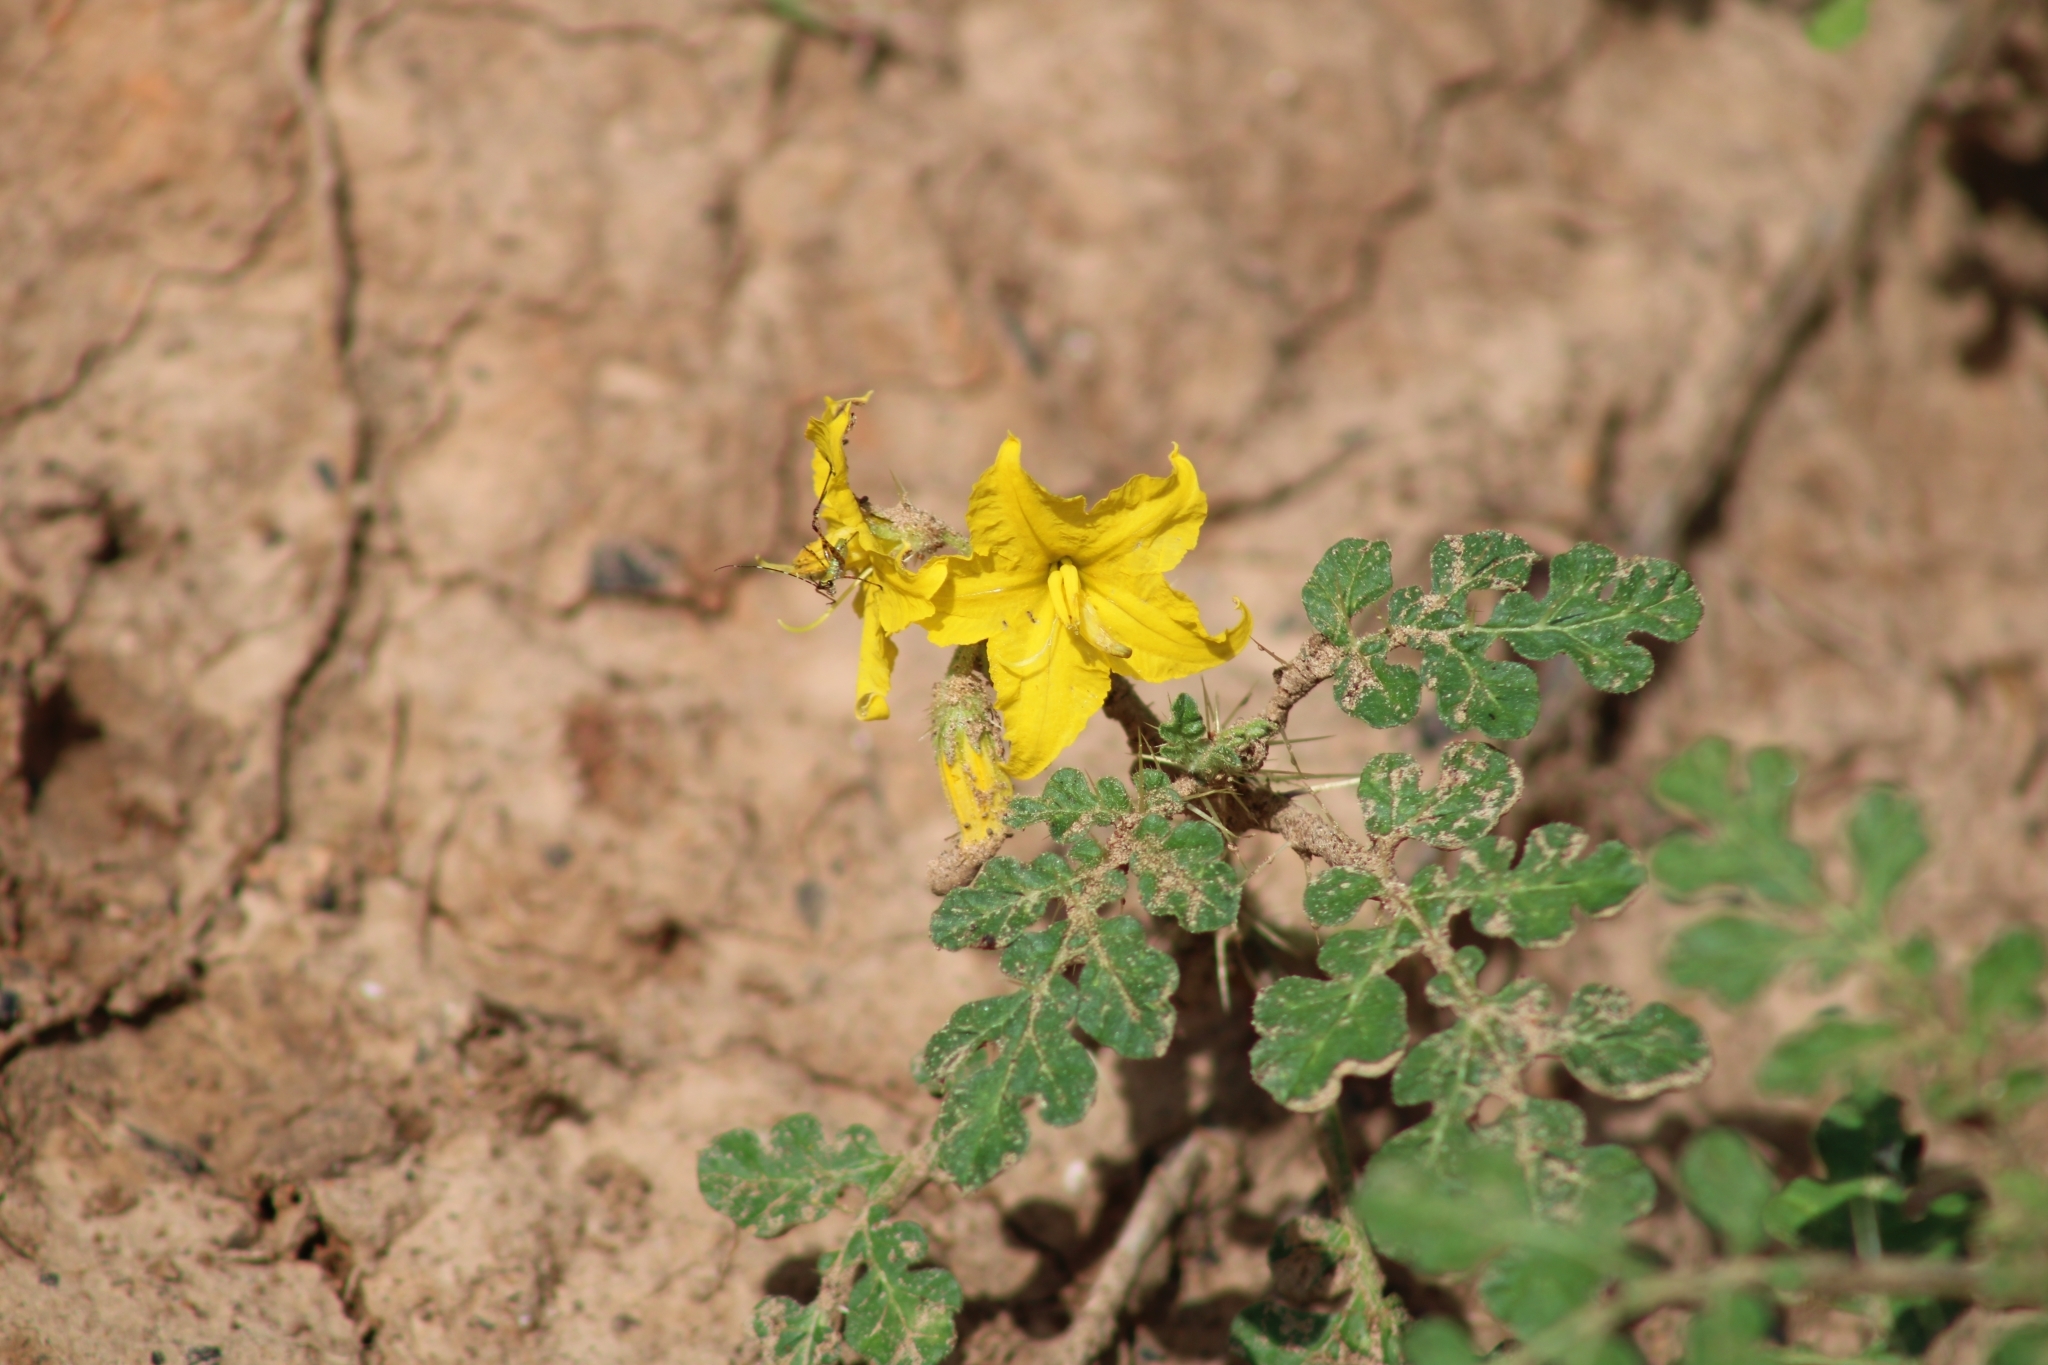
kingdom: Plantae
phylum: Tracheophyta
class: Magnoliopsida
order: Solanales
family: Solanaceae
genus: Solanum
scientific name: Solanum angustifolium
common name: Buffalobur nightshade
